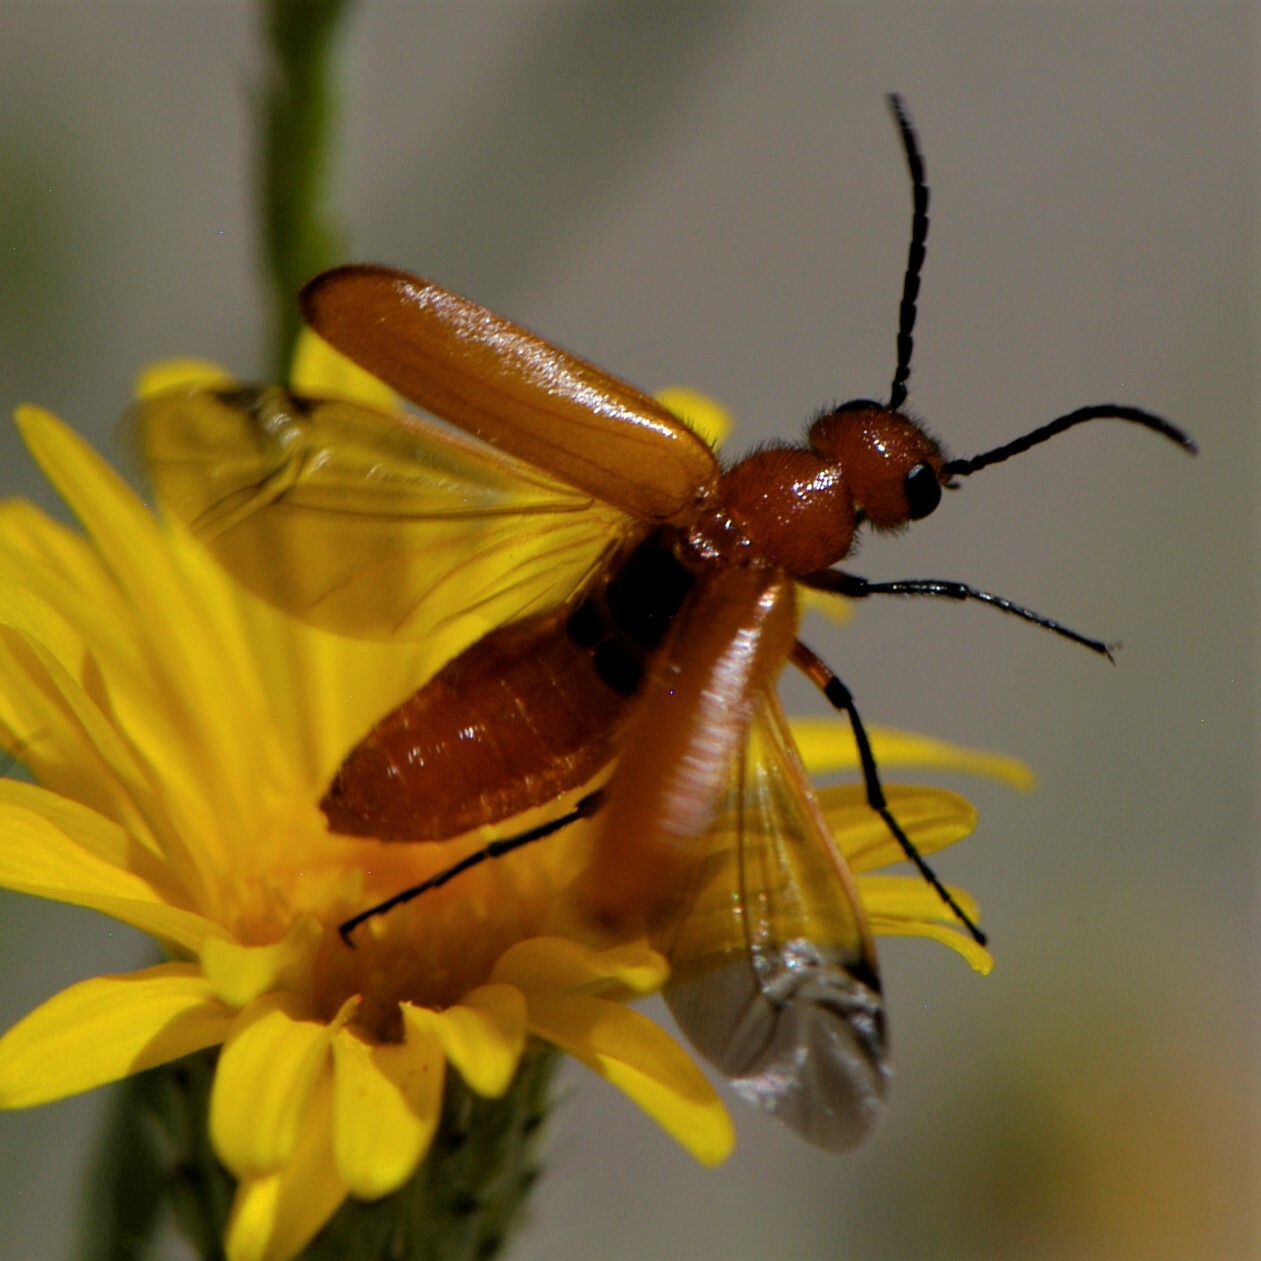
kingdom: Animalia
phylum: Arthropoda
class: Insecta
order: Coleoptera
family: Meloidae
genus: Nemognatha
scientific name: Nemognatha nigripennis
